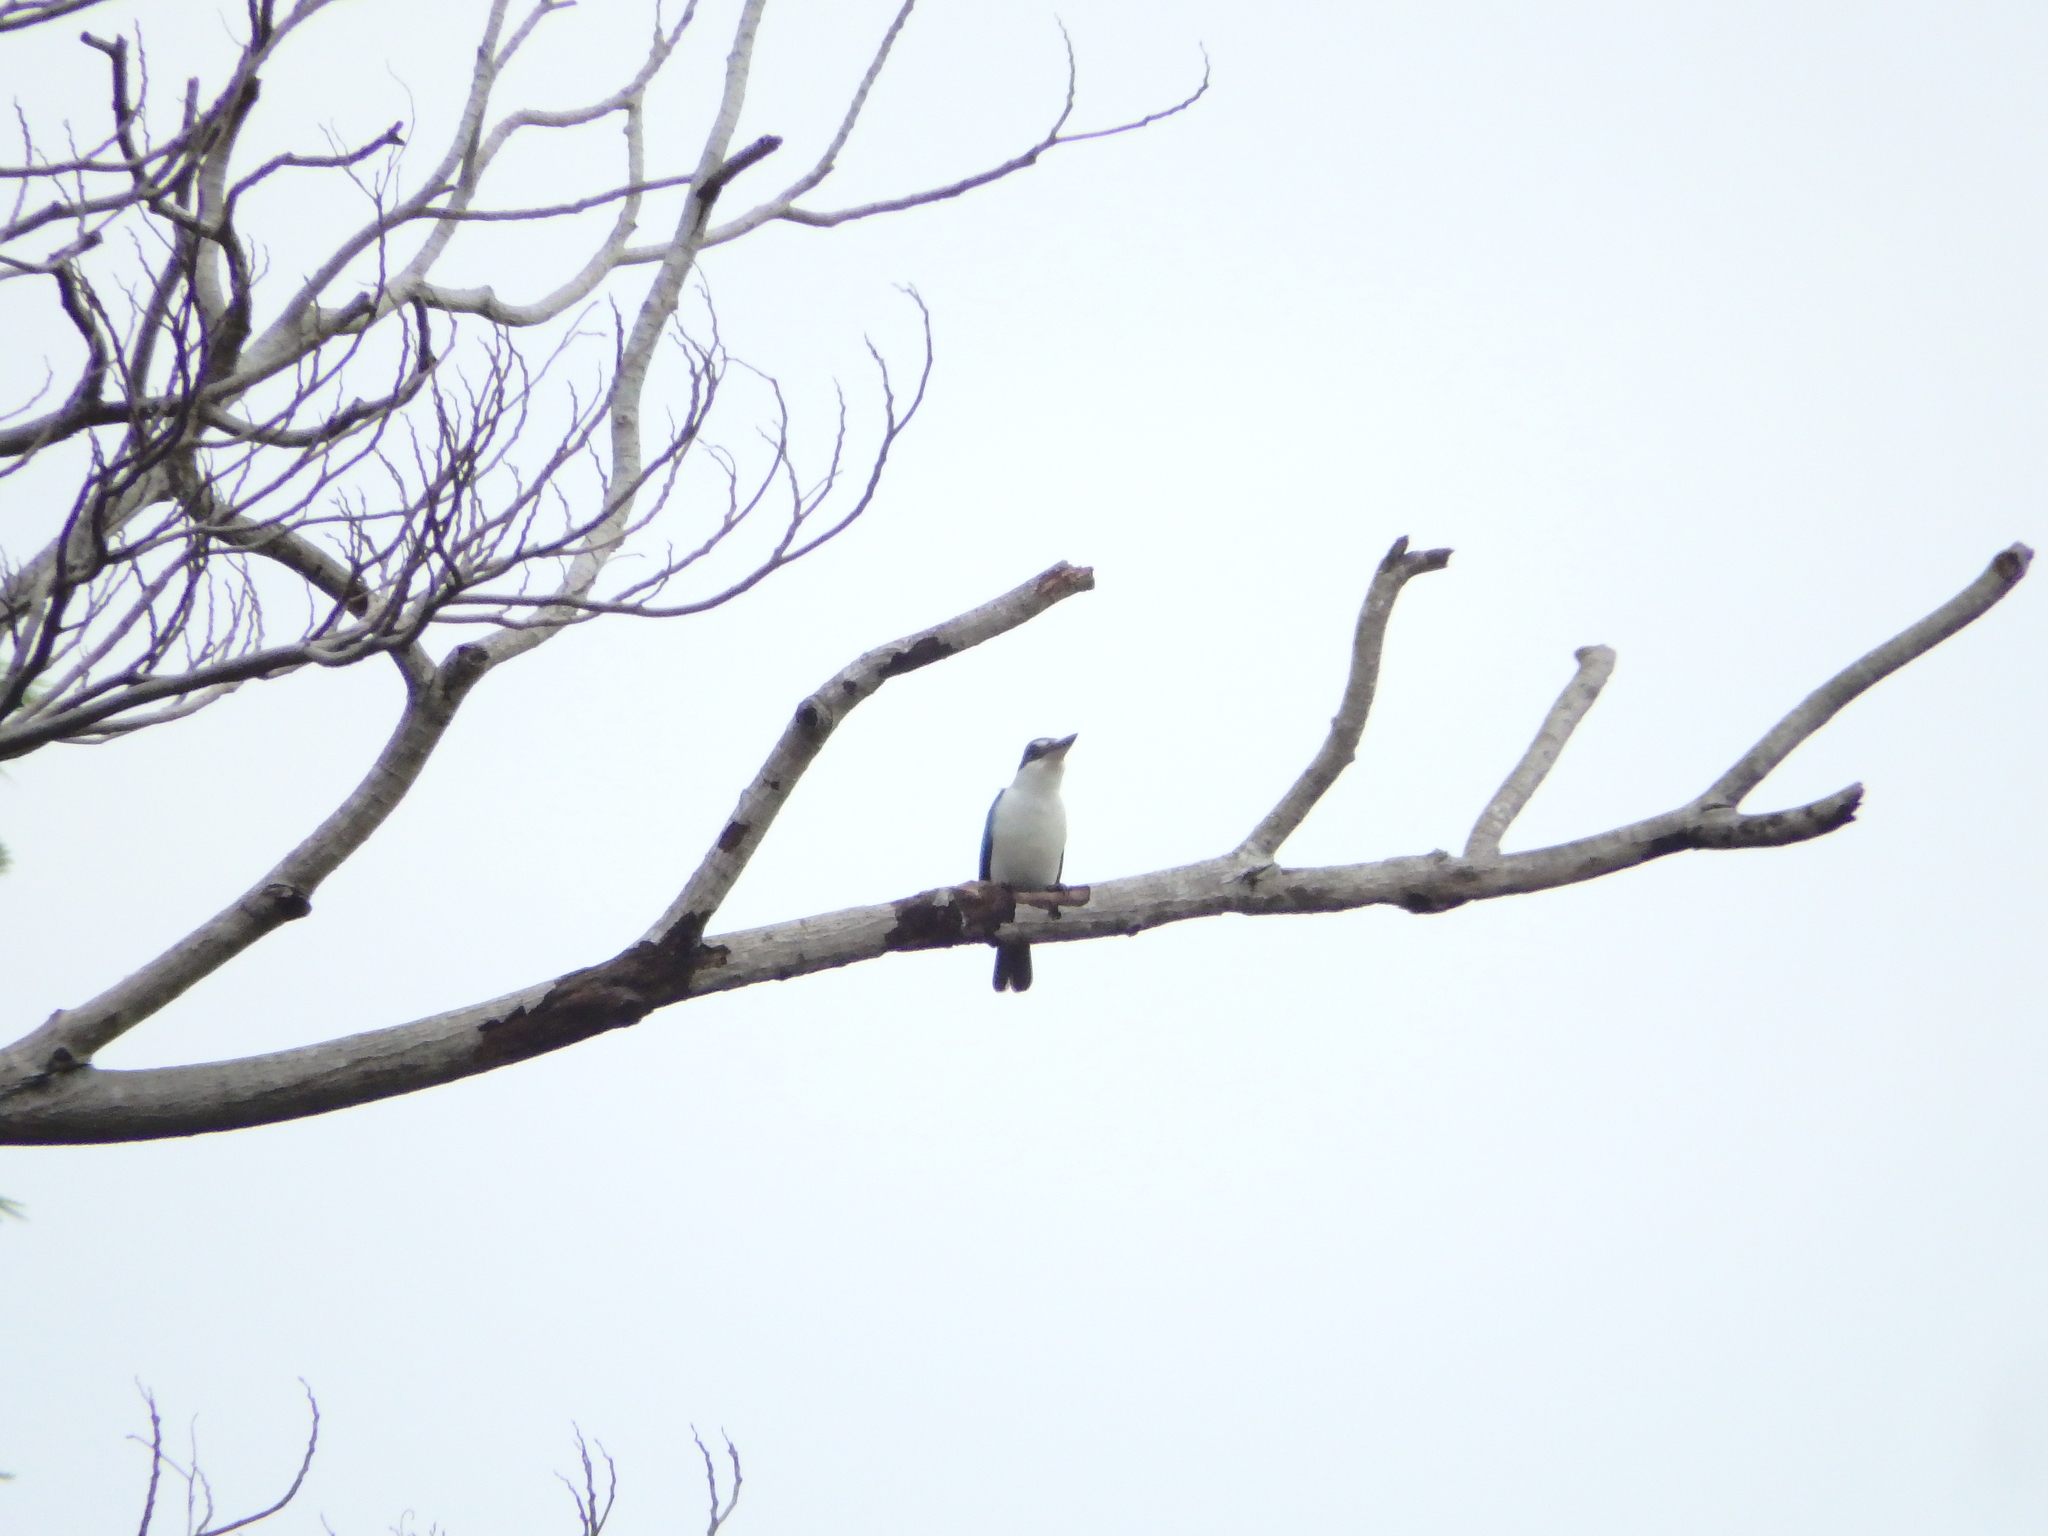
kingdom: Animalia
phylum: Chordata
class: Aves
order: Coraciiformes
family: Alcedinidae
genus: Todiramphus
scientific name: Todiramphus chloris
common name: Collared kingfisher
